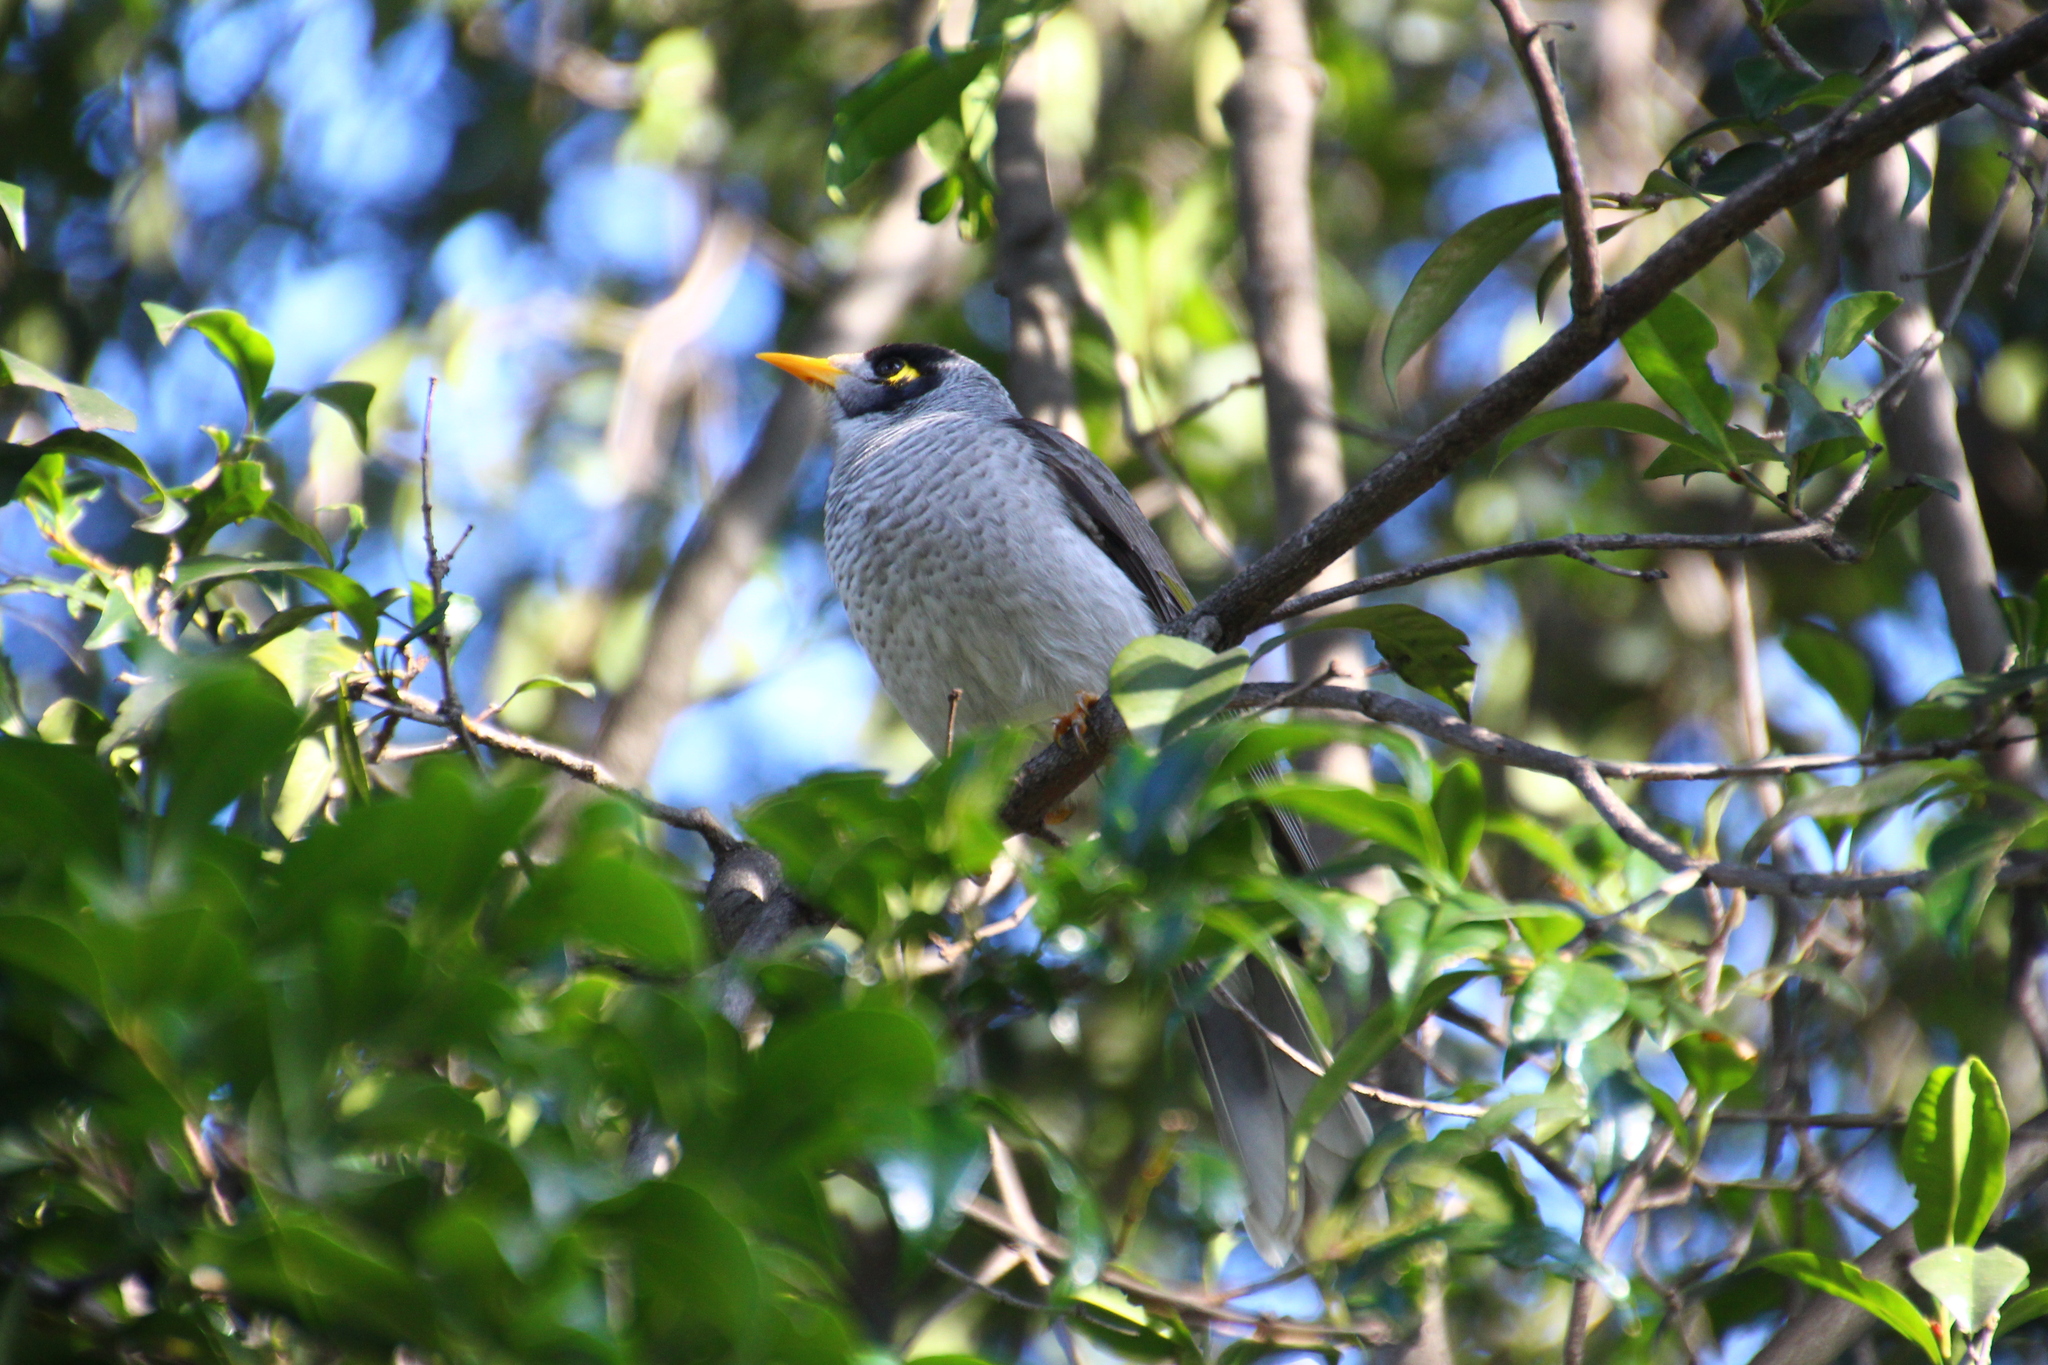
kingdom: Animalia
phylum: Chordata
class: Aves
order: Passeriformes
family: Meliphagidae
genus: Manorina
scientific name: Manorina melanocephala
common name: Noisy miner
